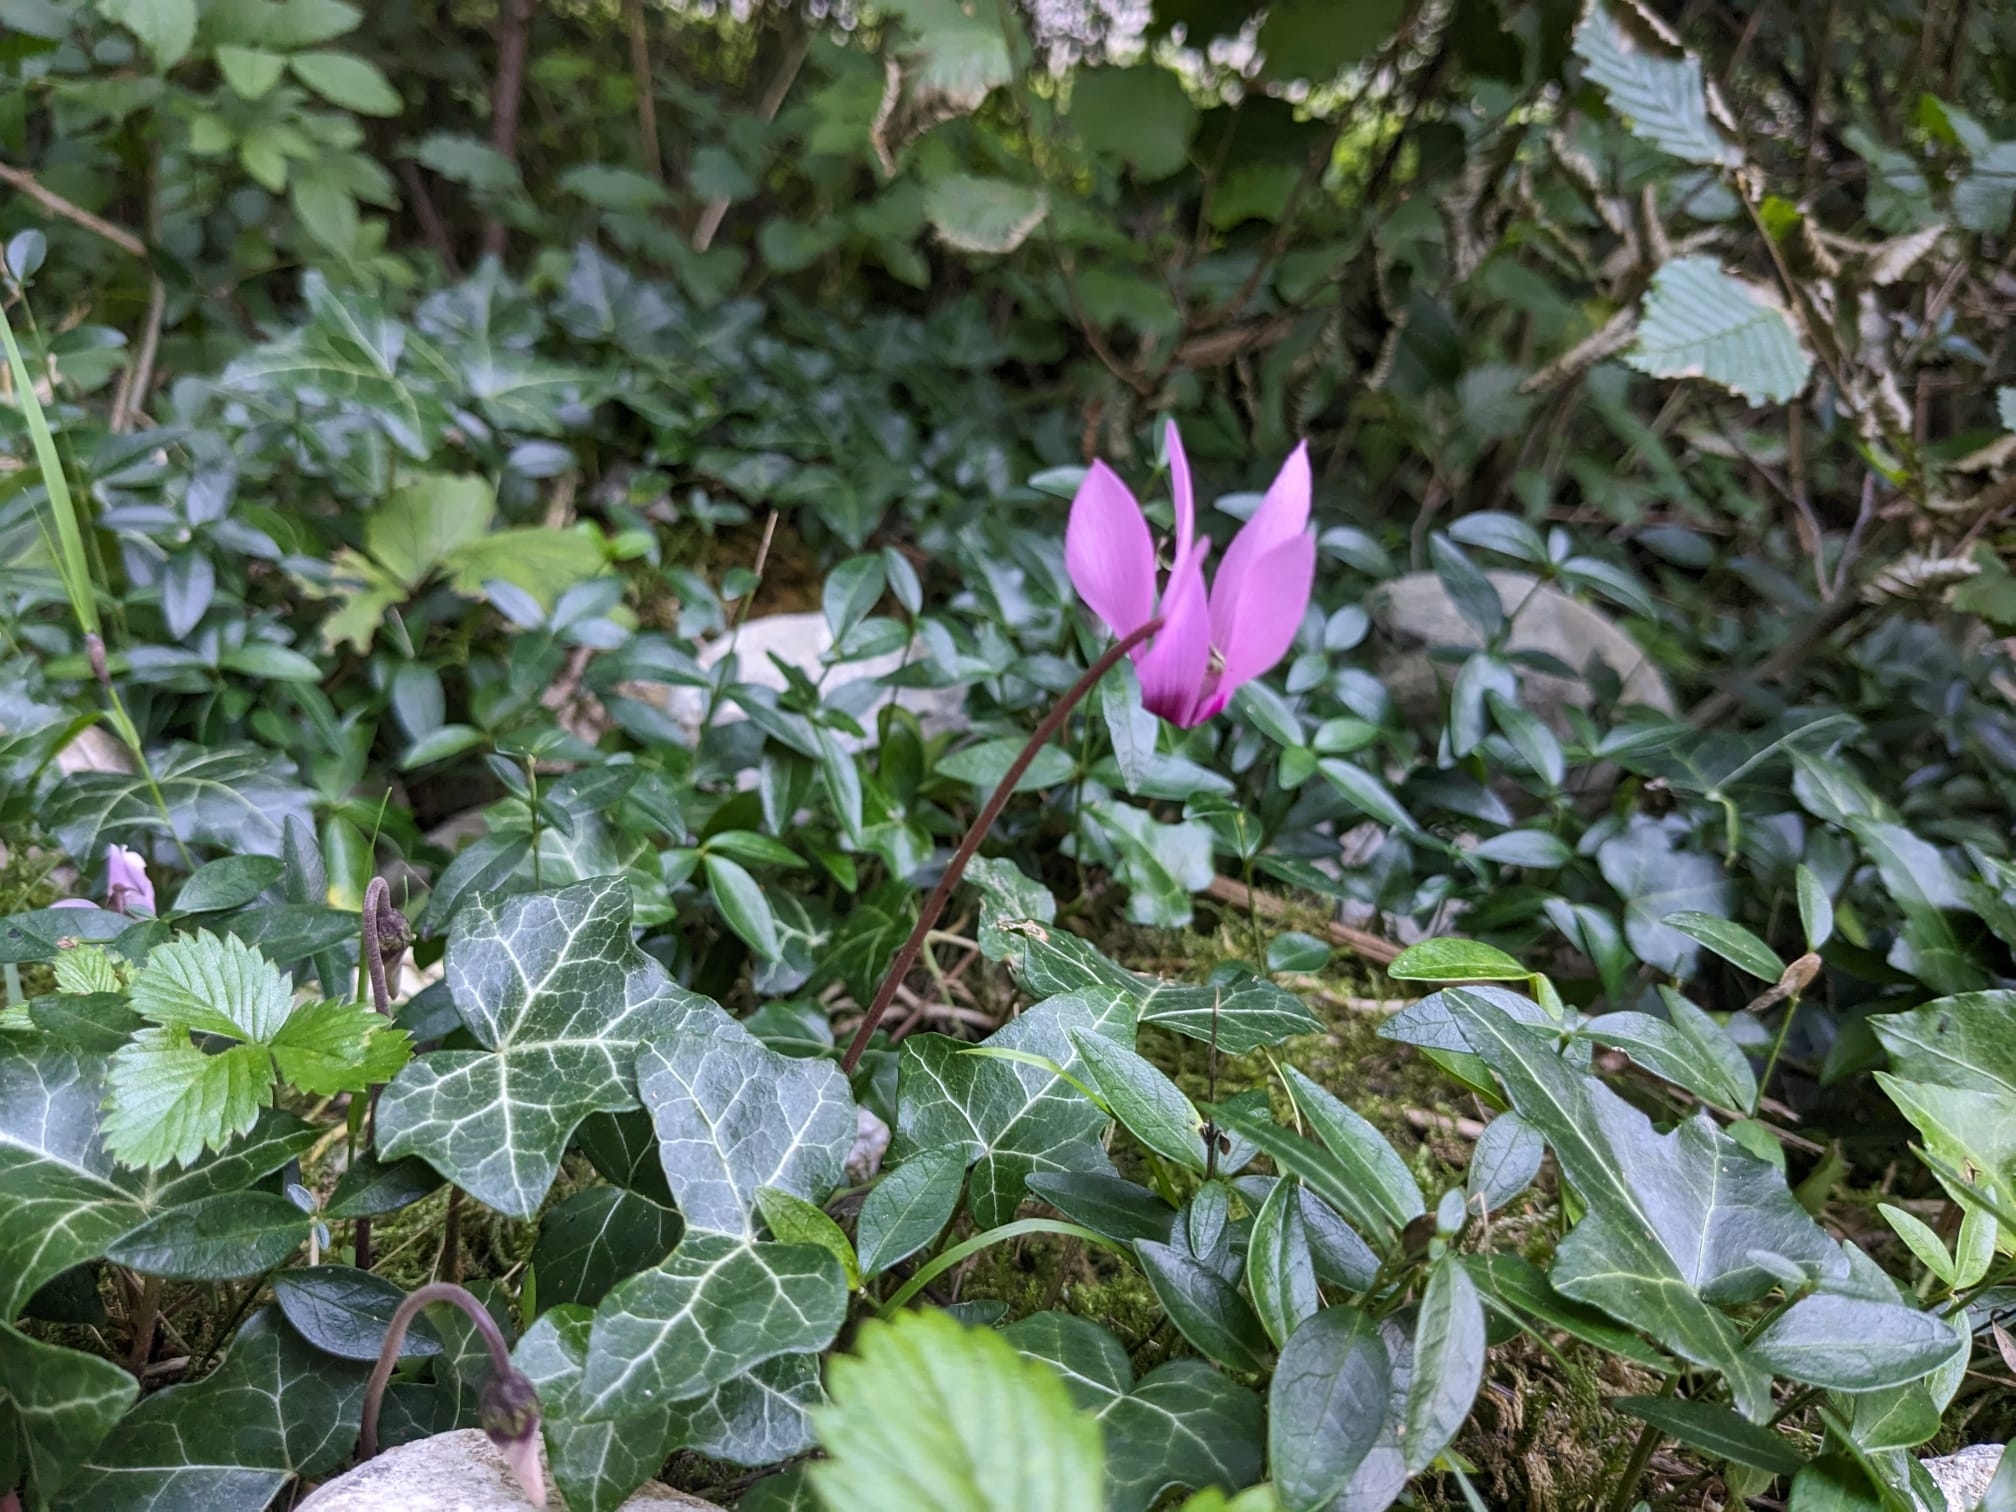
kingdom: Plantae
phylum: Tracheophyta
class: Magnoliopsida
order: Ericales
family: Primulaceae
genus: Cyclamen
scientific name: Cyclamen purpurascens
